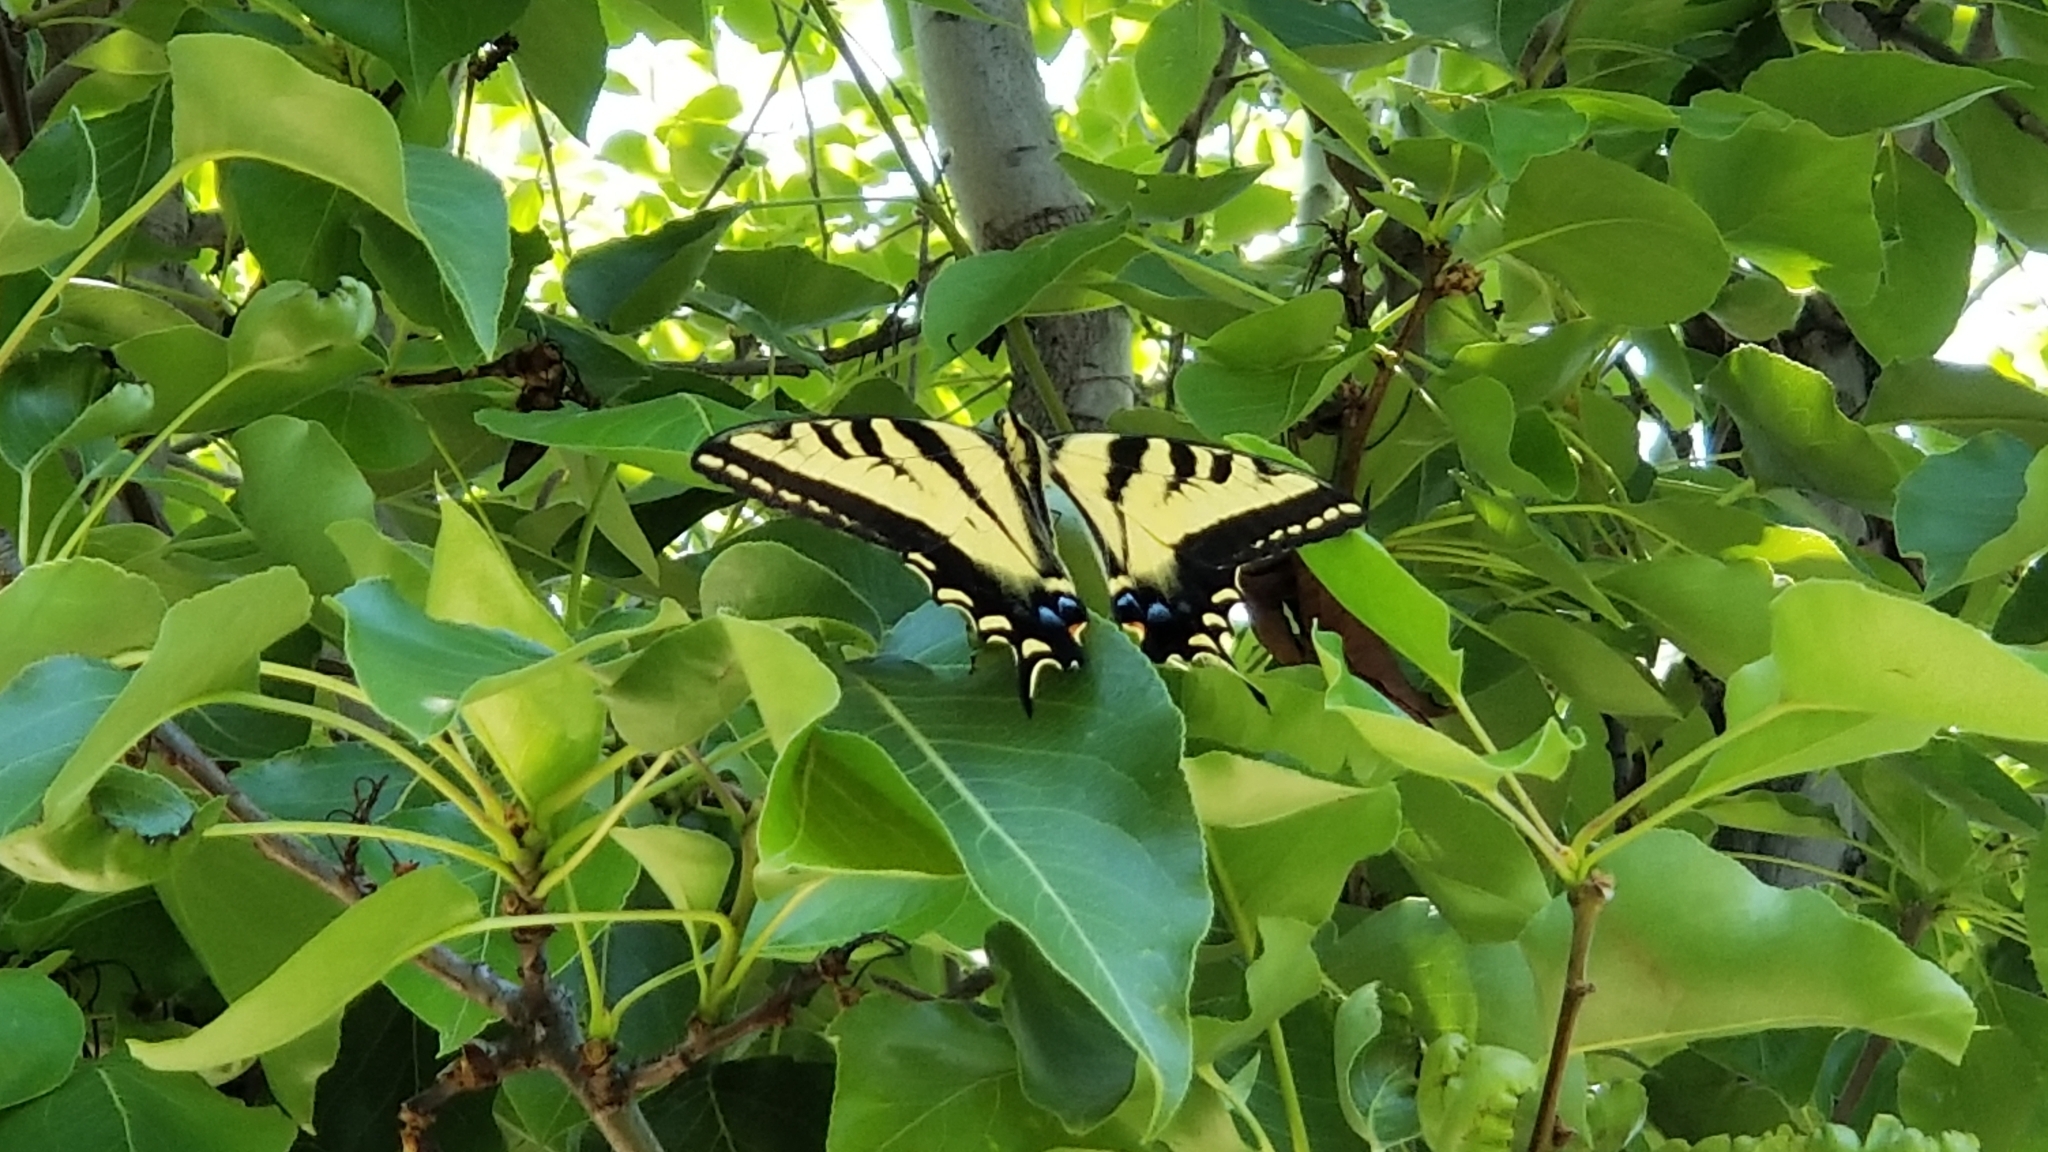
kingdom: Animalia
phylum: Arthropoda
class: Insecta
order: Lepidoptera
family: Papilionidae
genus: Papilio
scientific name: Papilio rutulus
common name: Western tiger swallowtail
